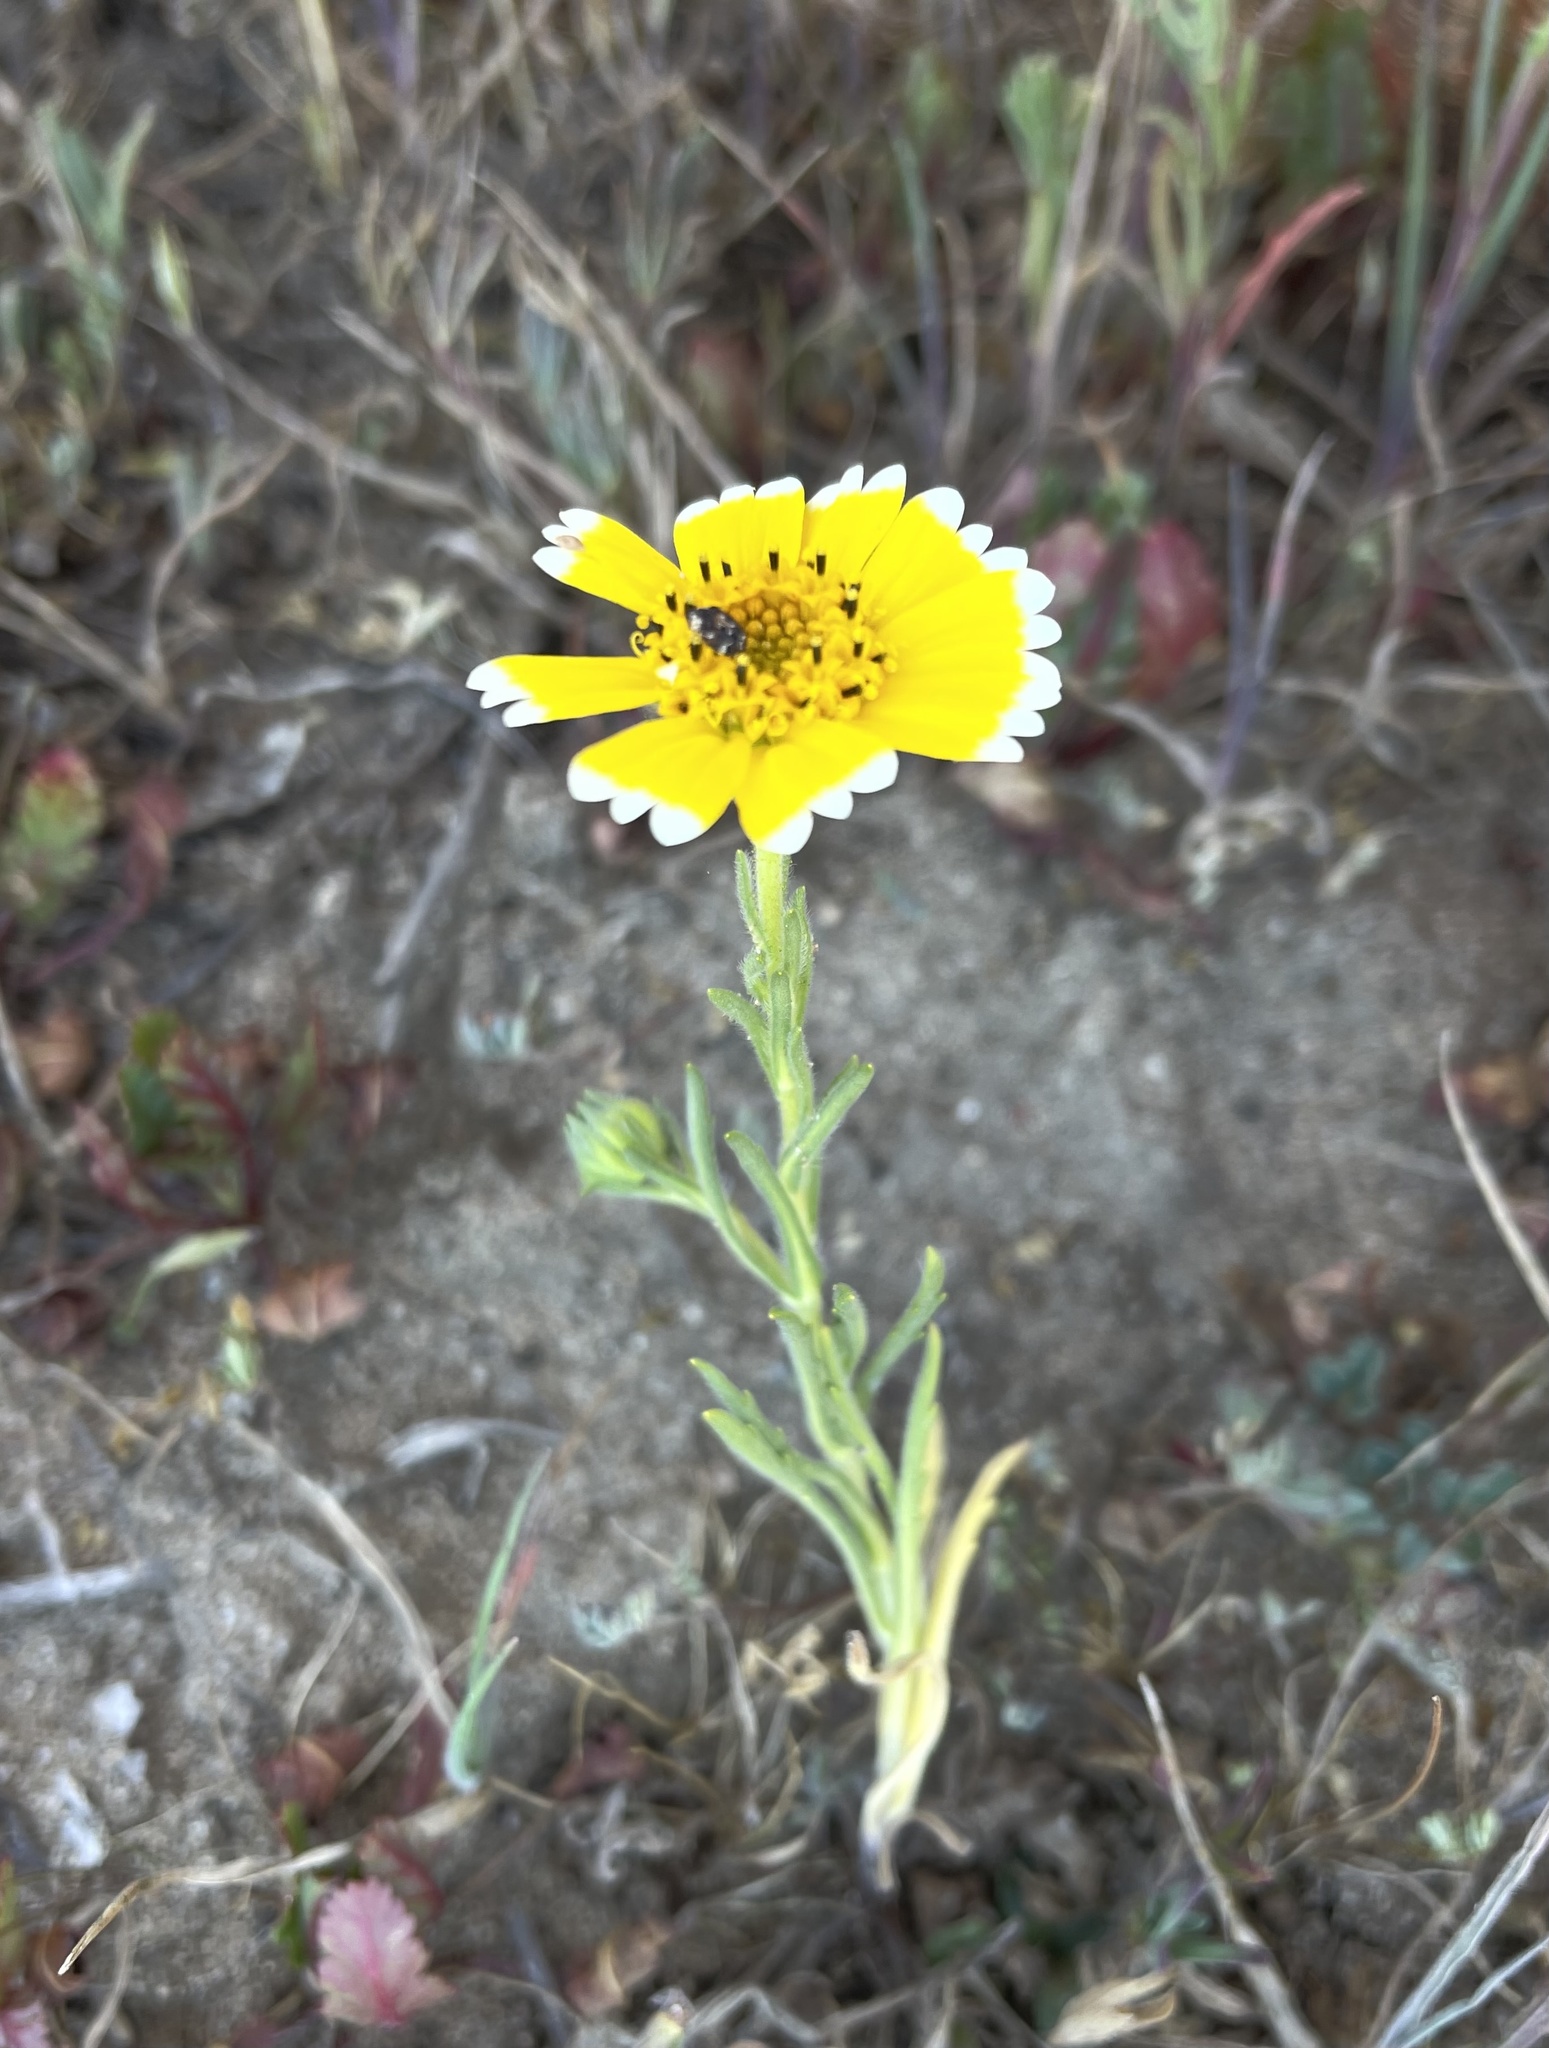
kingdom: Plantae
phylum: Tracheophyta
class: Magnoliopsida
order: Asterales
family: Asteraceae
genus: Layia
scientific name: Layia platyglossa
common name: Tidy-tips
